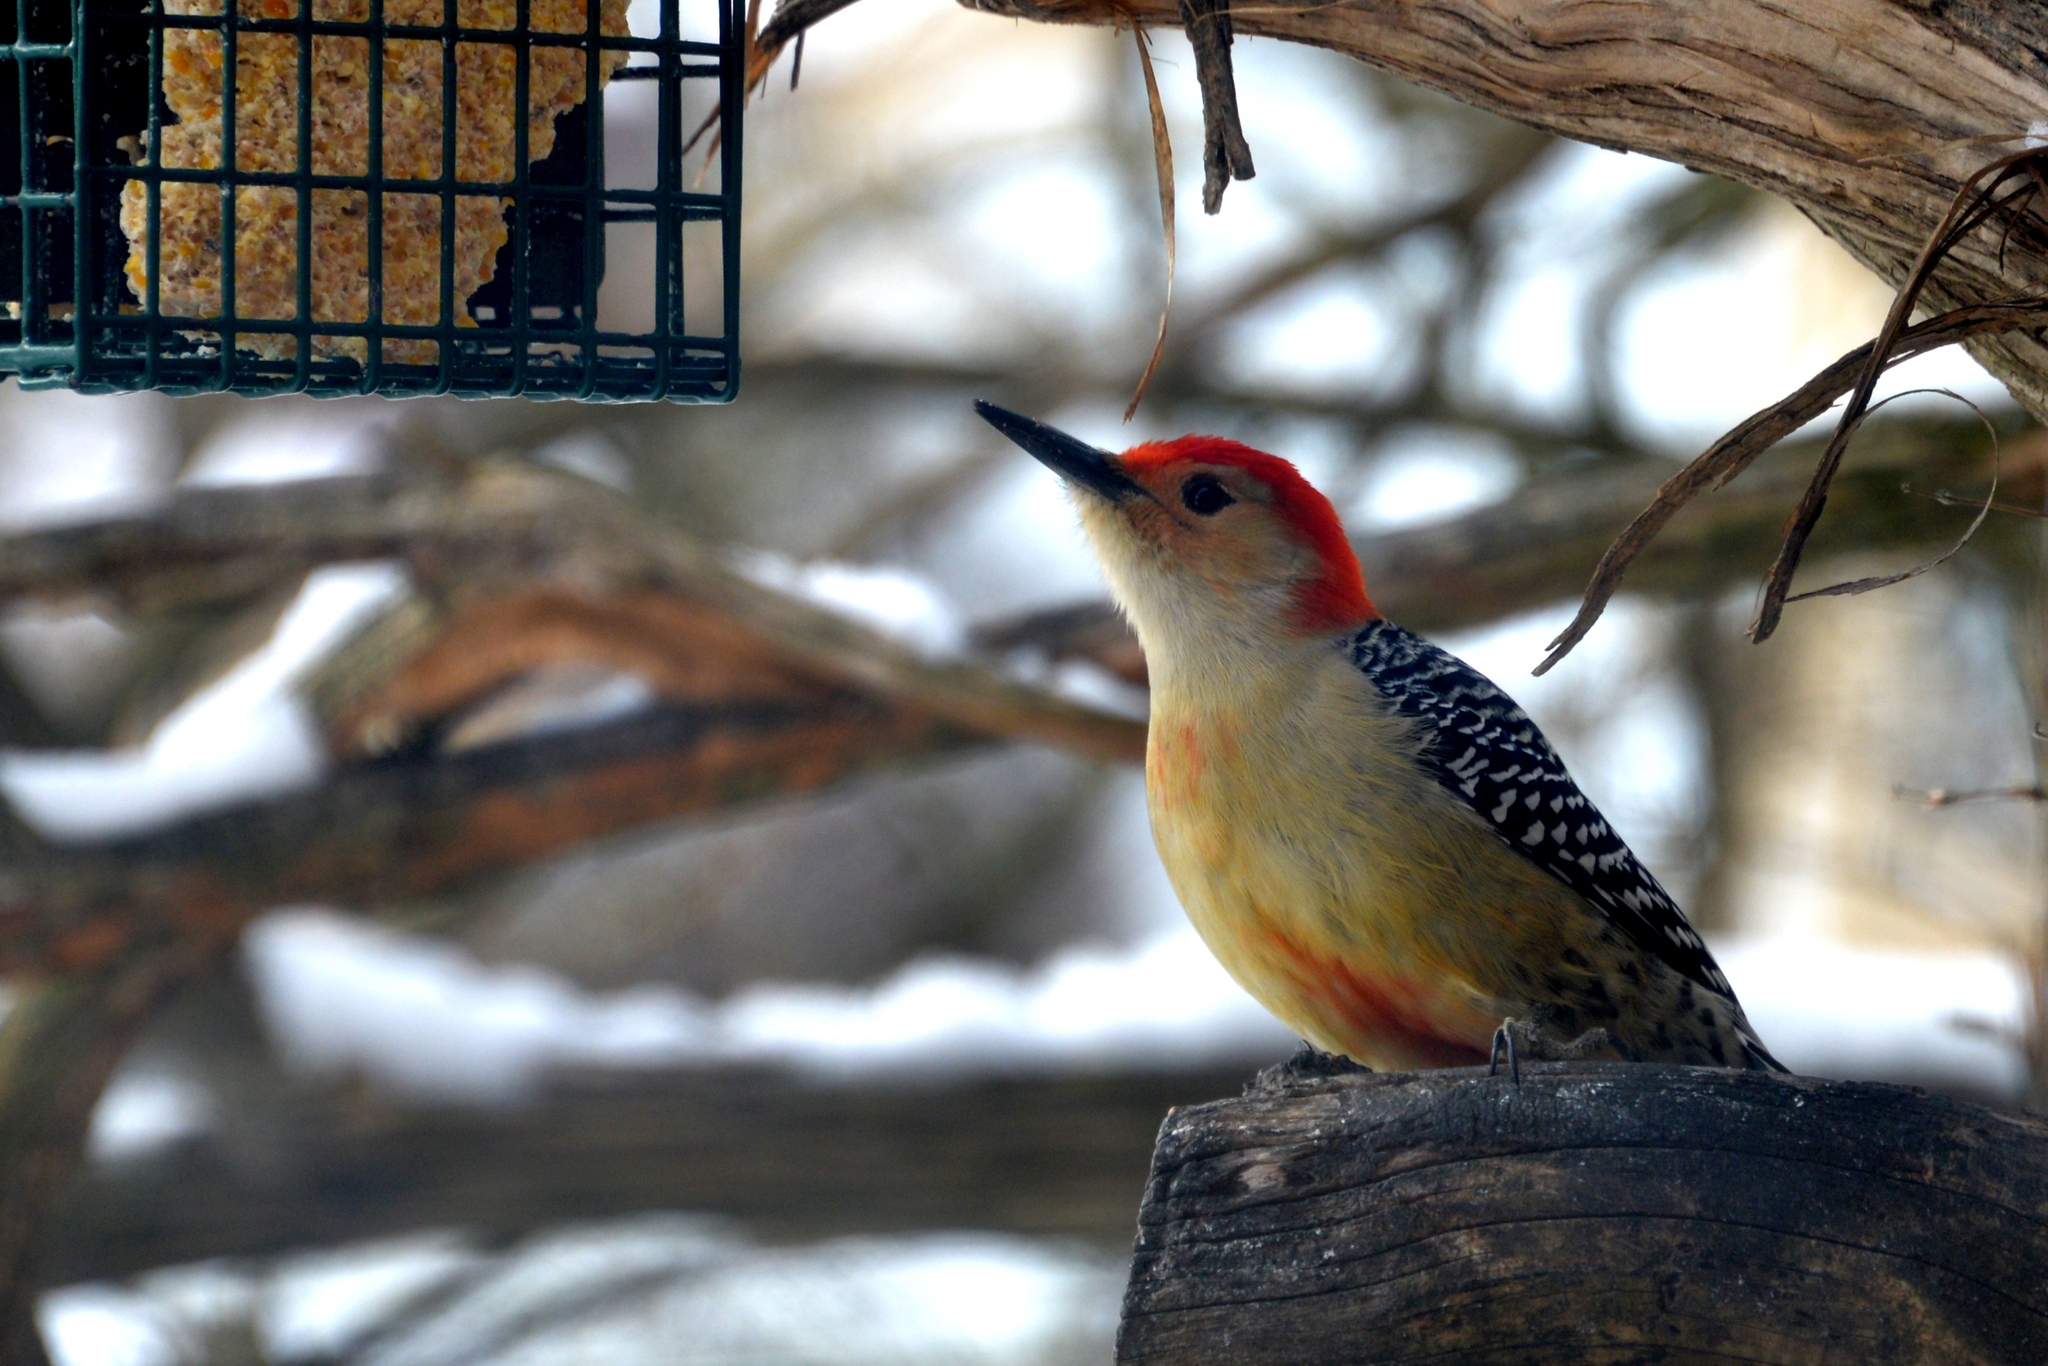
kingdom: Animalia
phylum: Chordata
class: Aves
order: Piciformes
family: Picidae
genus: Melanerpes
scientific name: Melanerpes carolinus
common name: Red-bellied woodpecker
